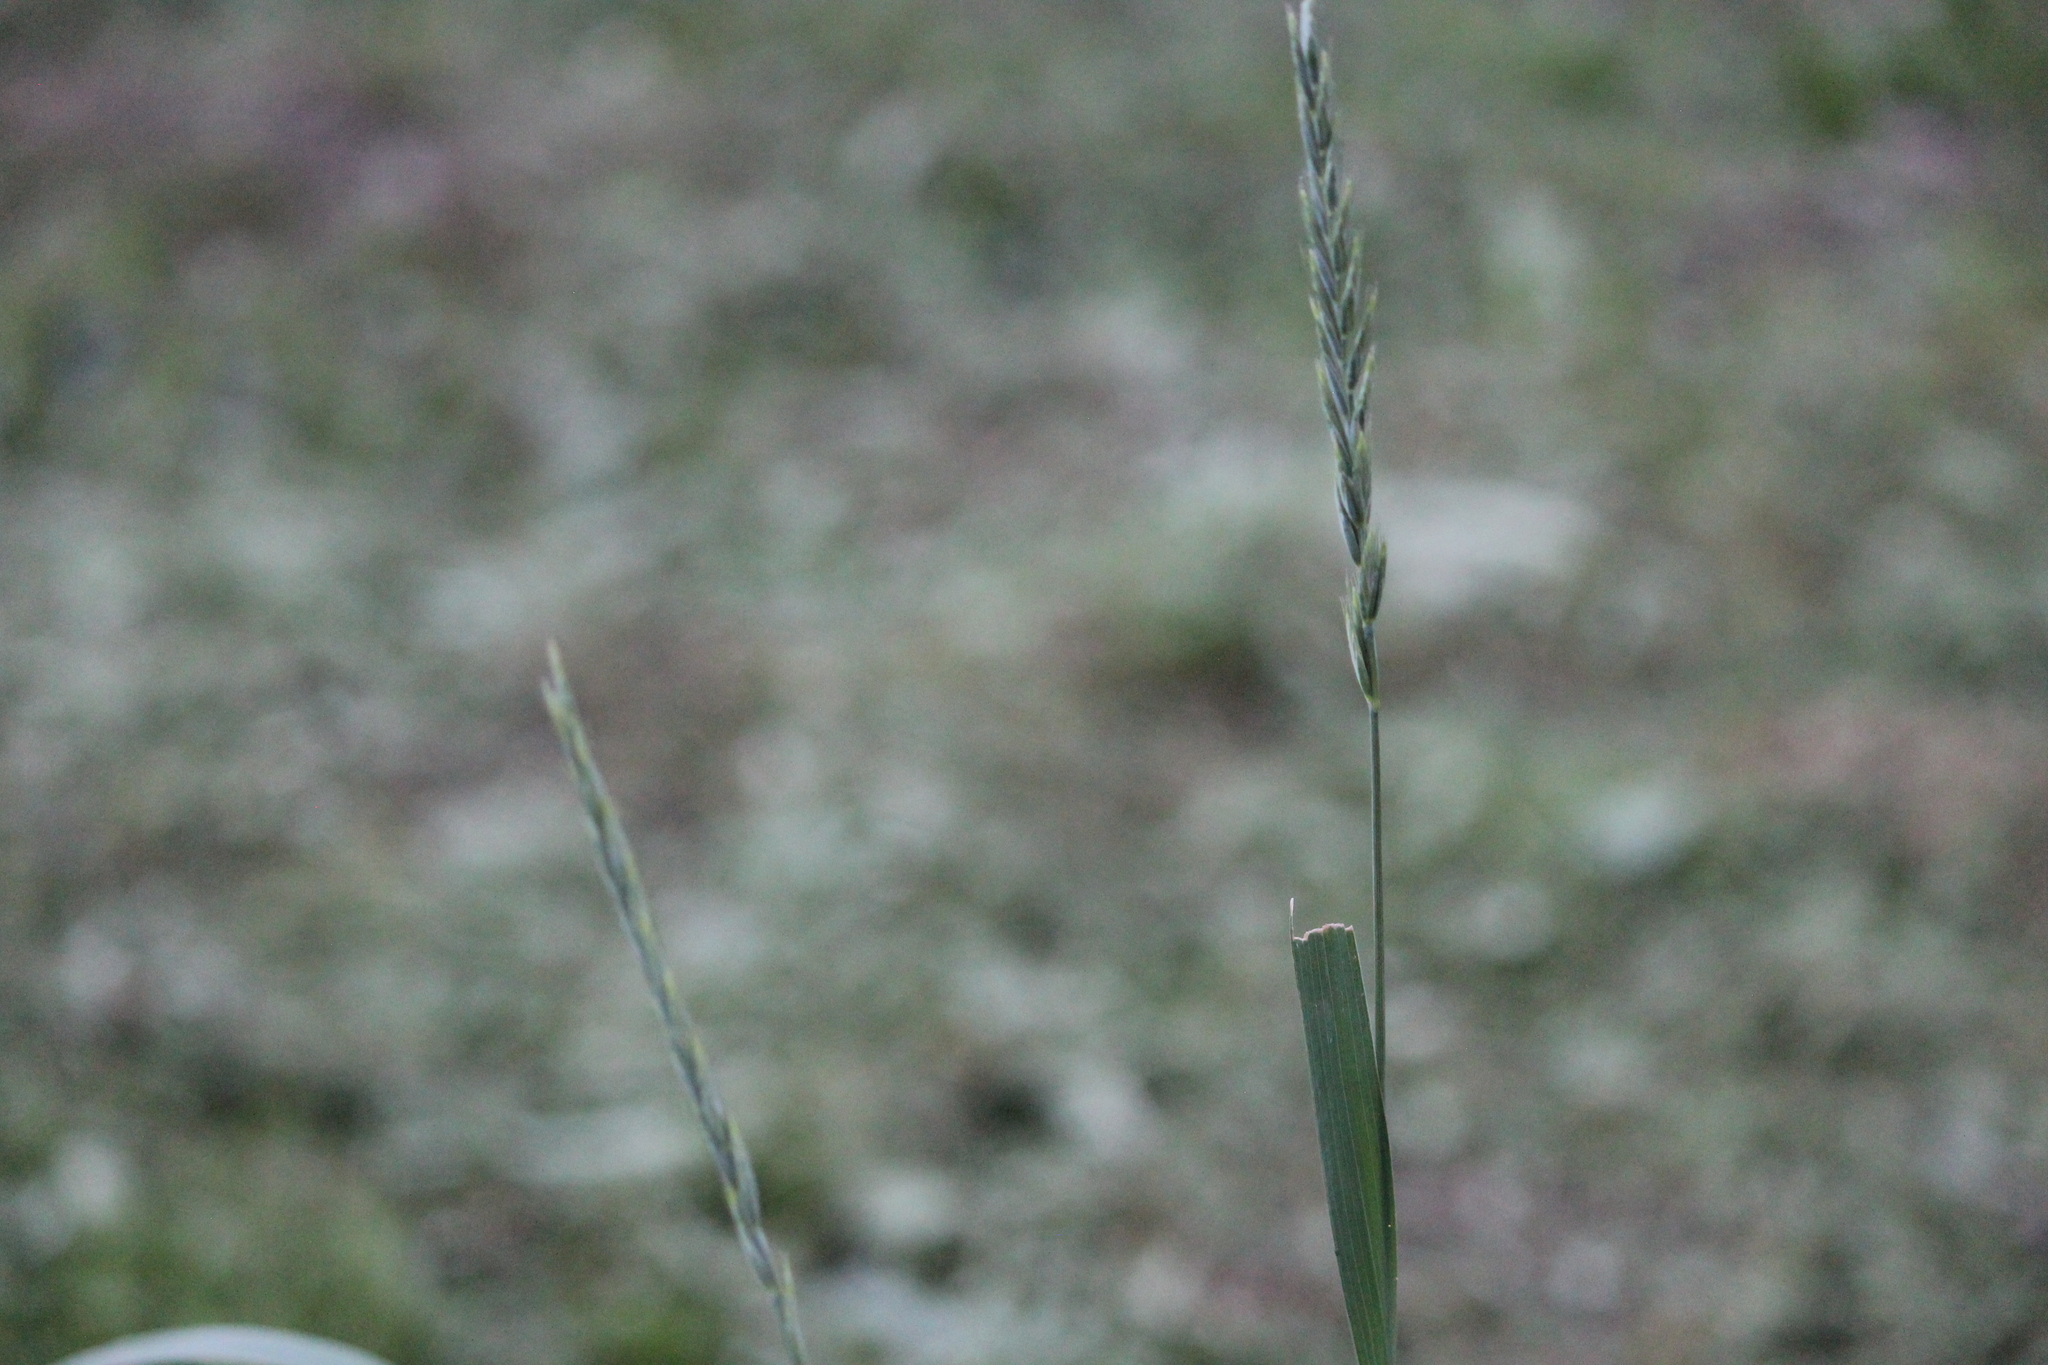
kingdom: Plantae
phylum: Tracheophyta
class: Liliopsida
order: Poales
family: Poaceae
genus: Elymus
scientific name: Elymus repens
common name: Quackgrass
